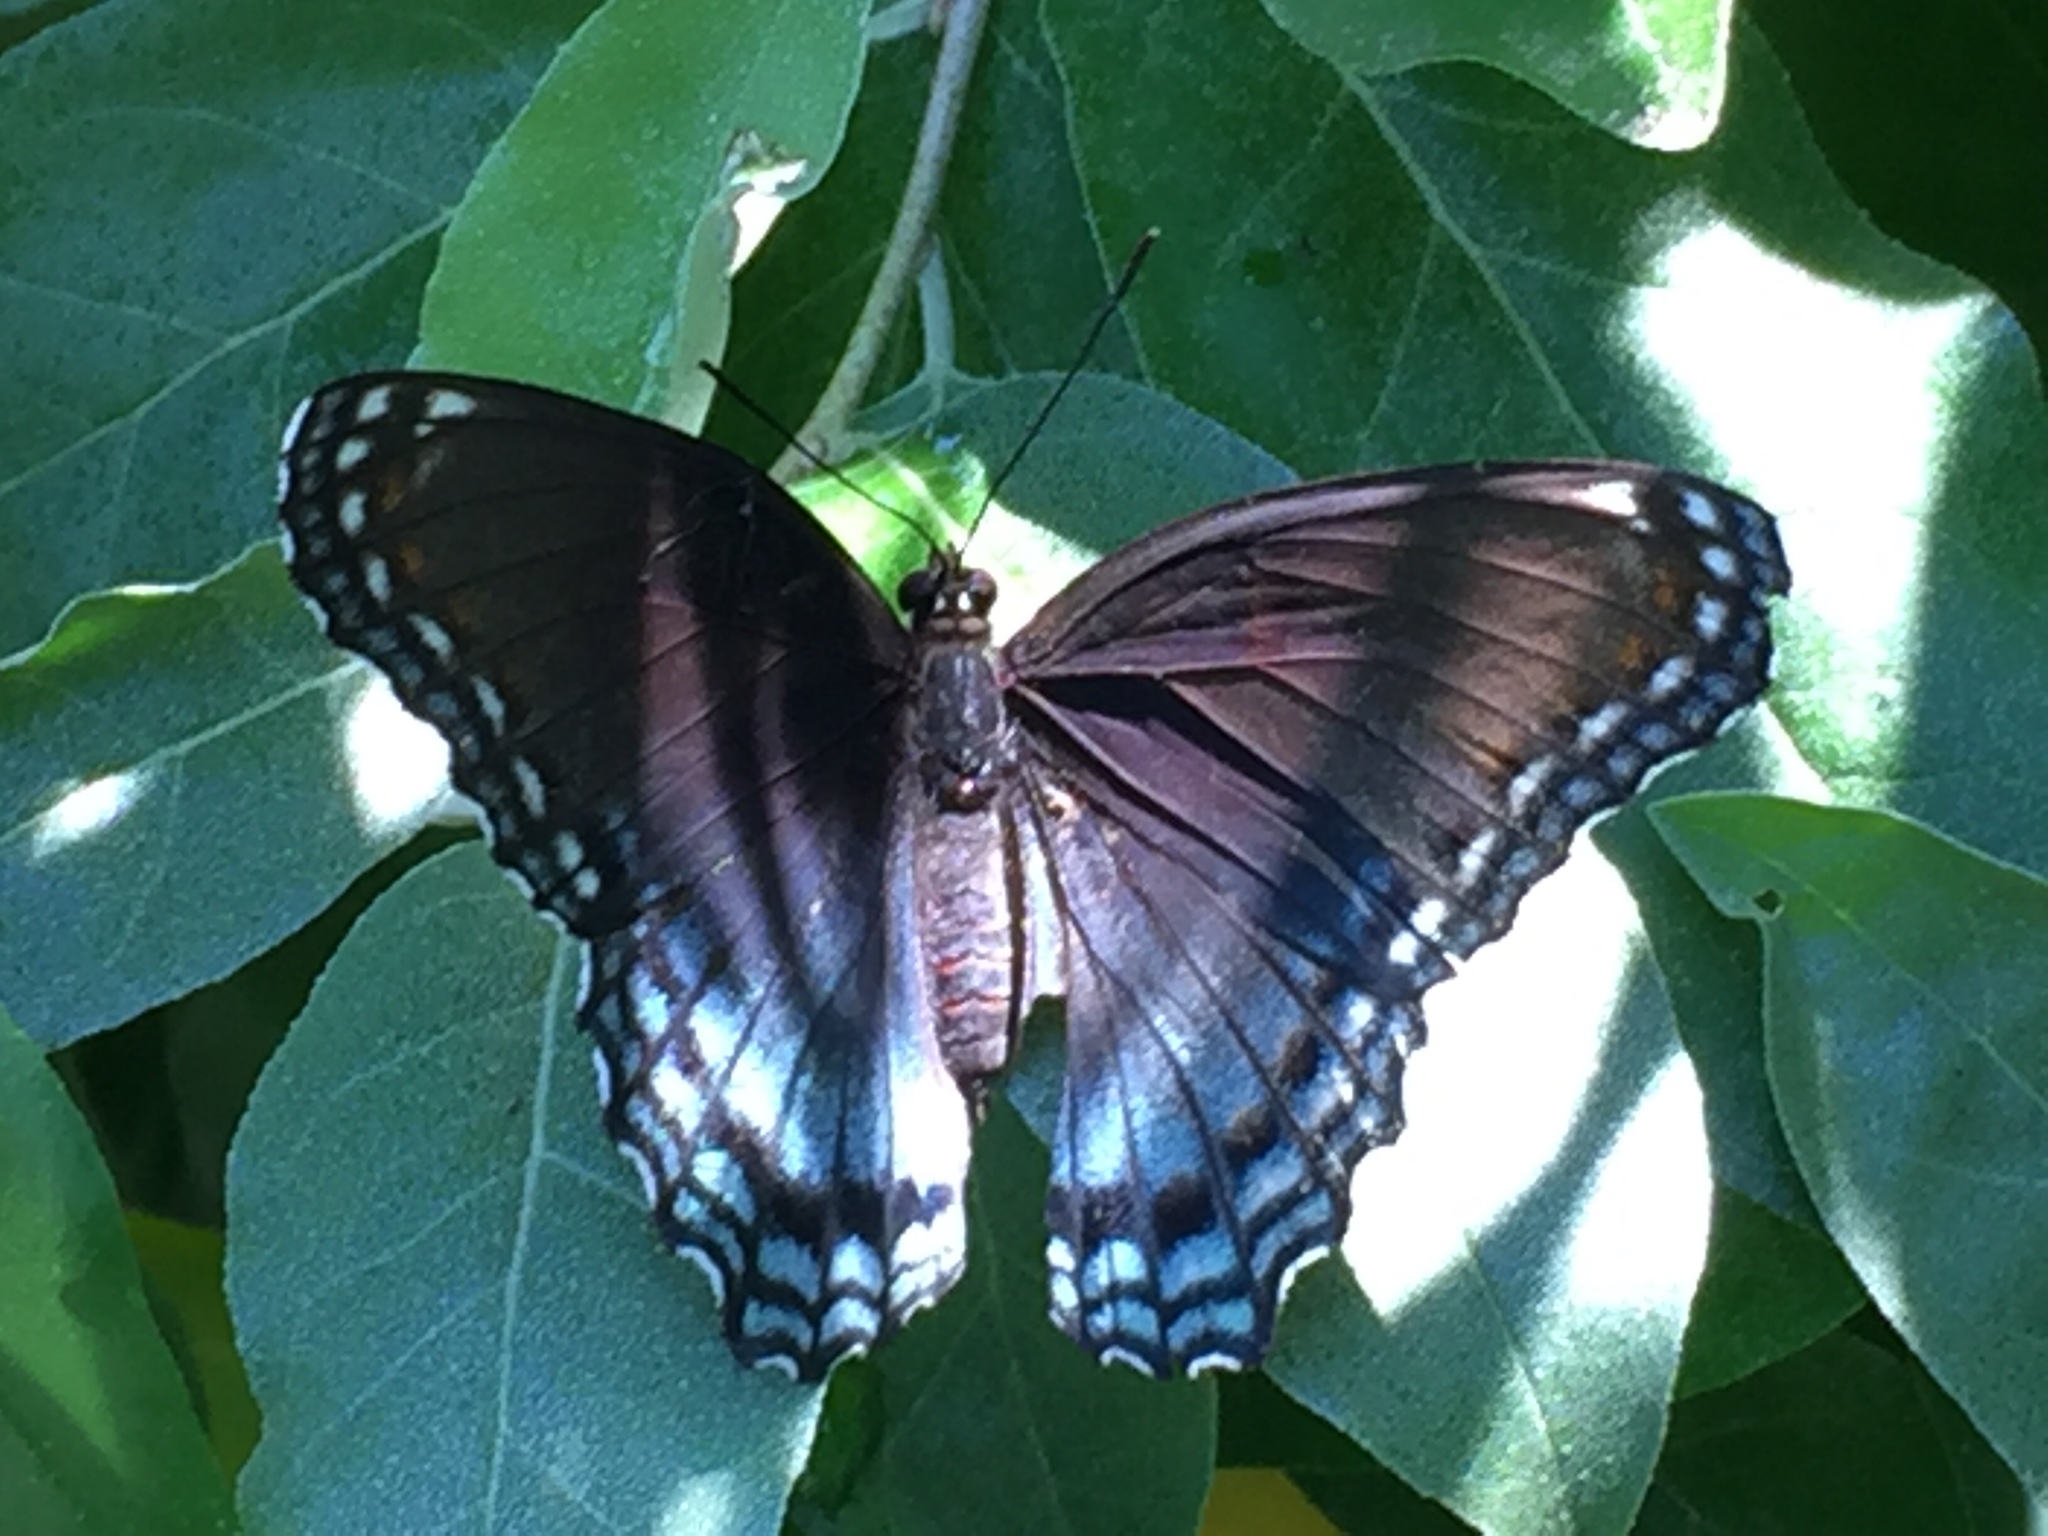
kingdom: Animalia
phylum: Arthropoda
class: Insecta
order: Lepidoptera
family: Nymphalidae
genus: Limenitis
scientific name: Limenitis astyanax
